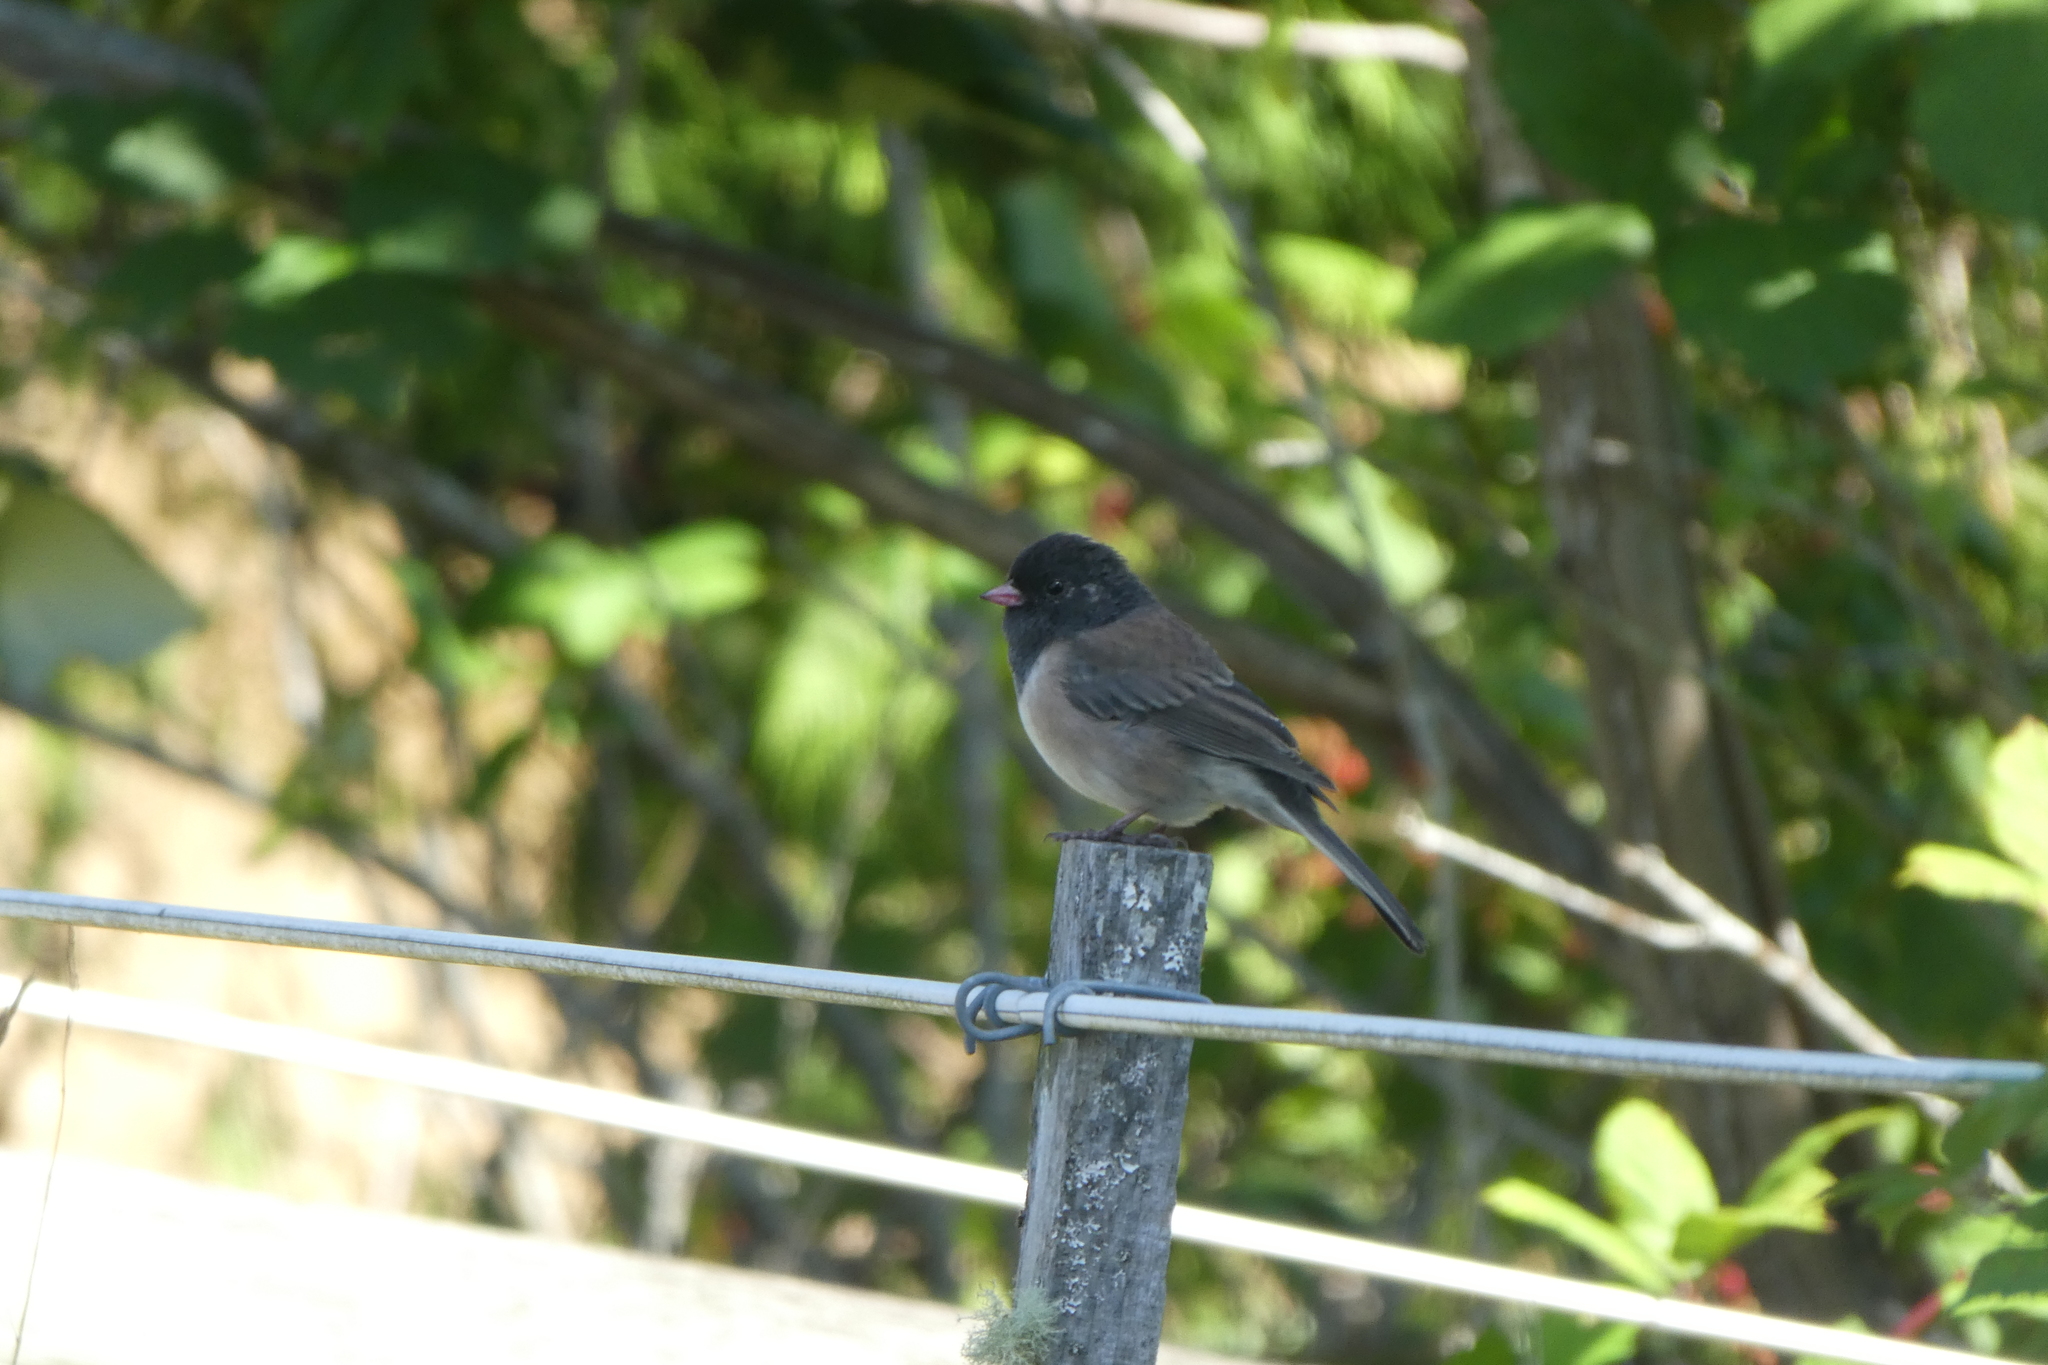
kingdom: Animalia
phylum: Chordata
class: Aves
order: Passeriformes
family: Passerellidae
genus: Junco
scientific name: Junco hyemalis
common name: Dark-eyed junco
